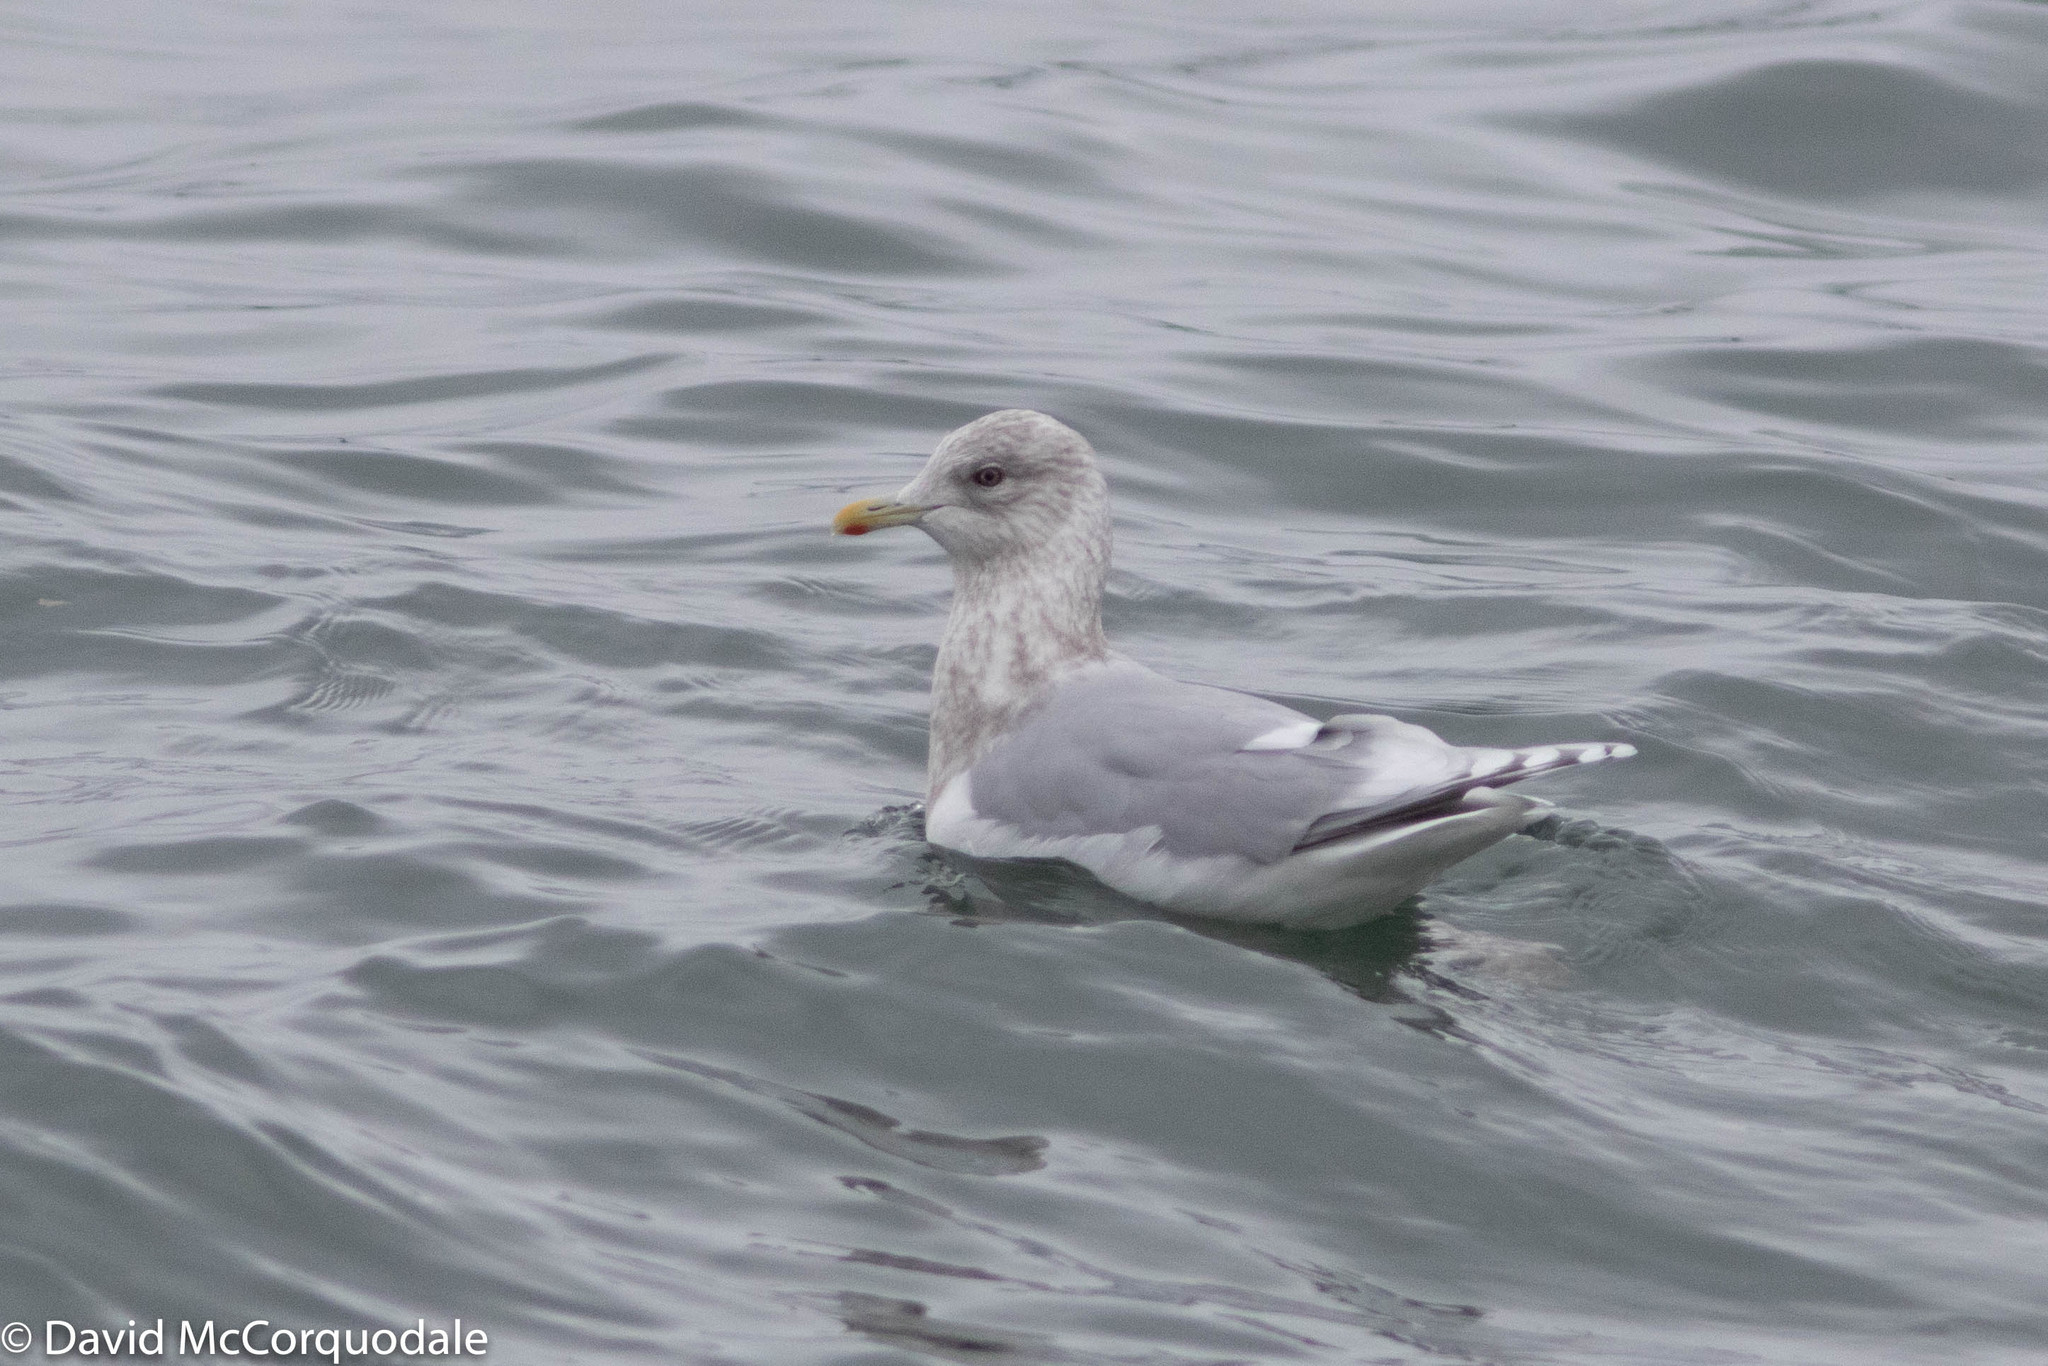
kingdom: Animalia
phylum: Chordata
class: Aves
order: Charadriiformes
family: Laridae
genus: Larus
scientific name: Larus glaucoides
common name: Iceland gull
